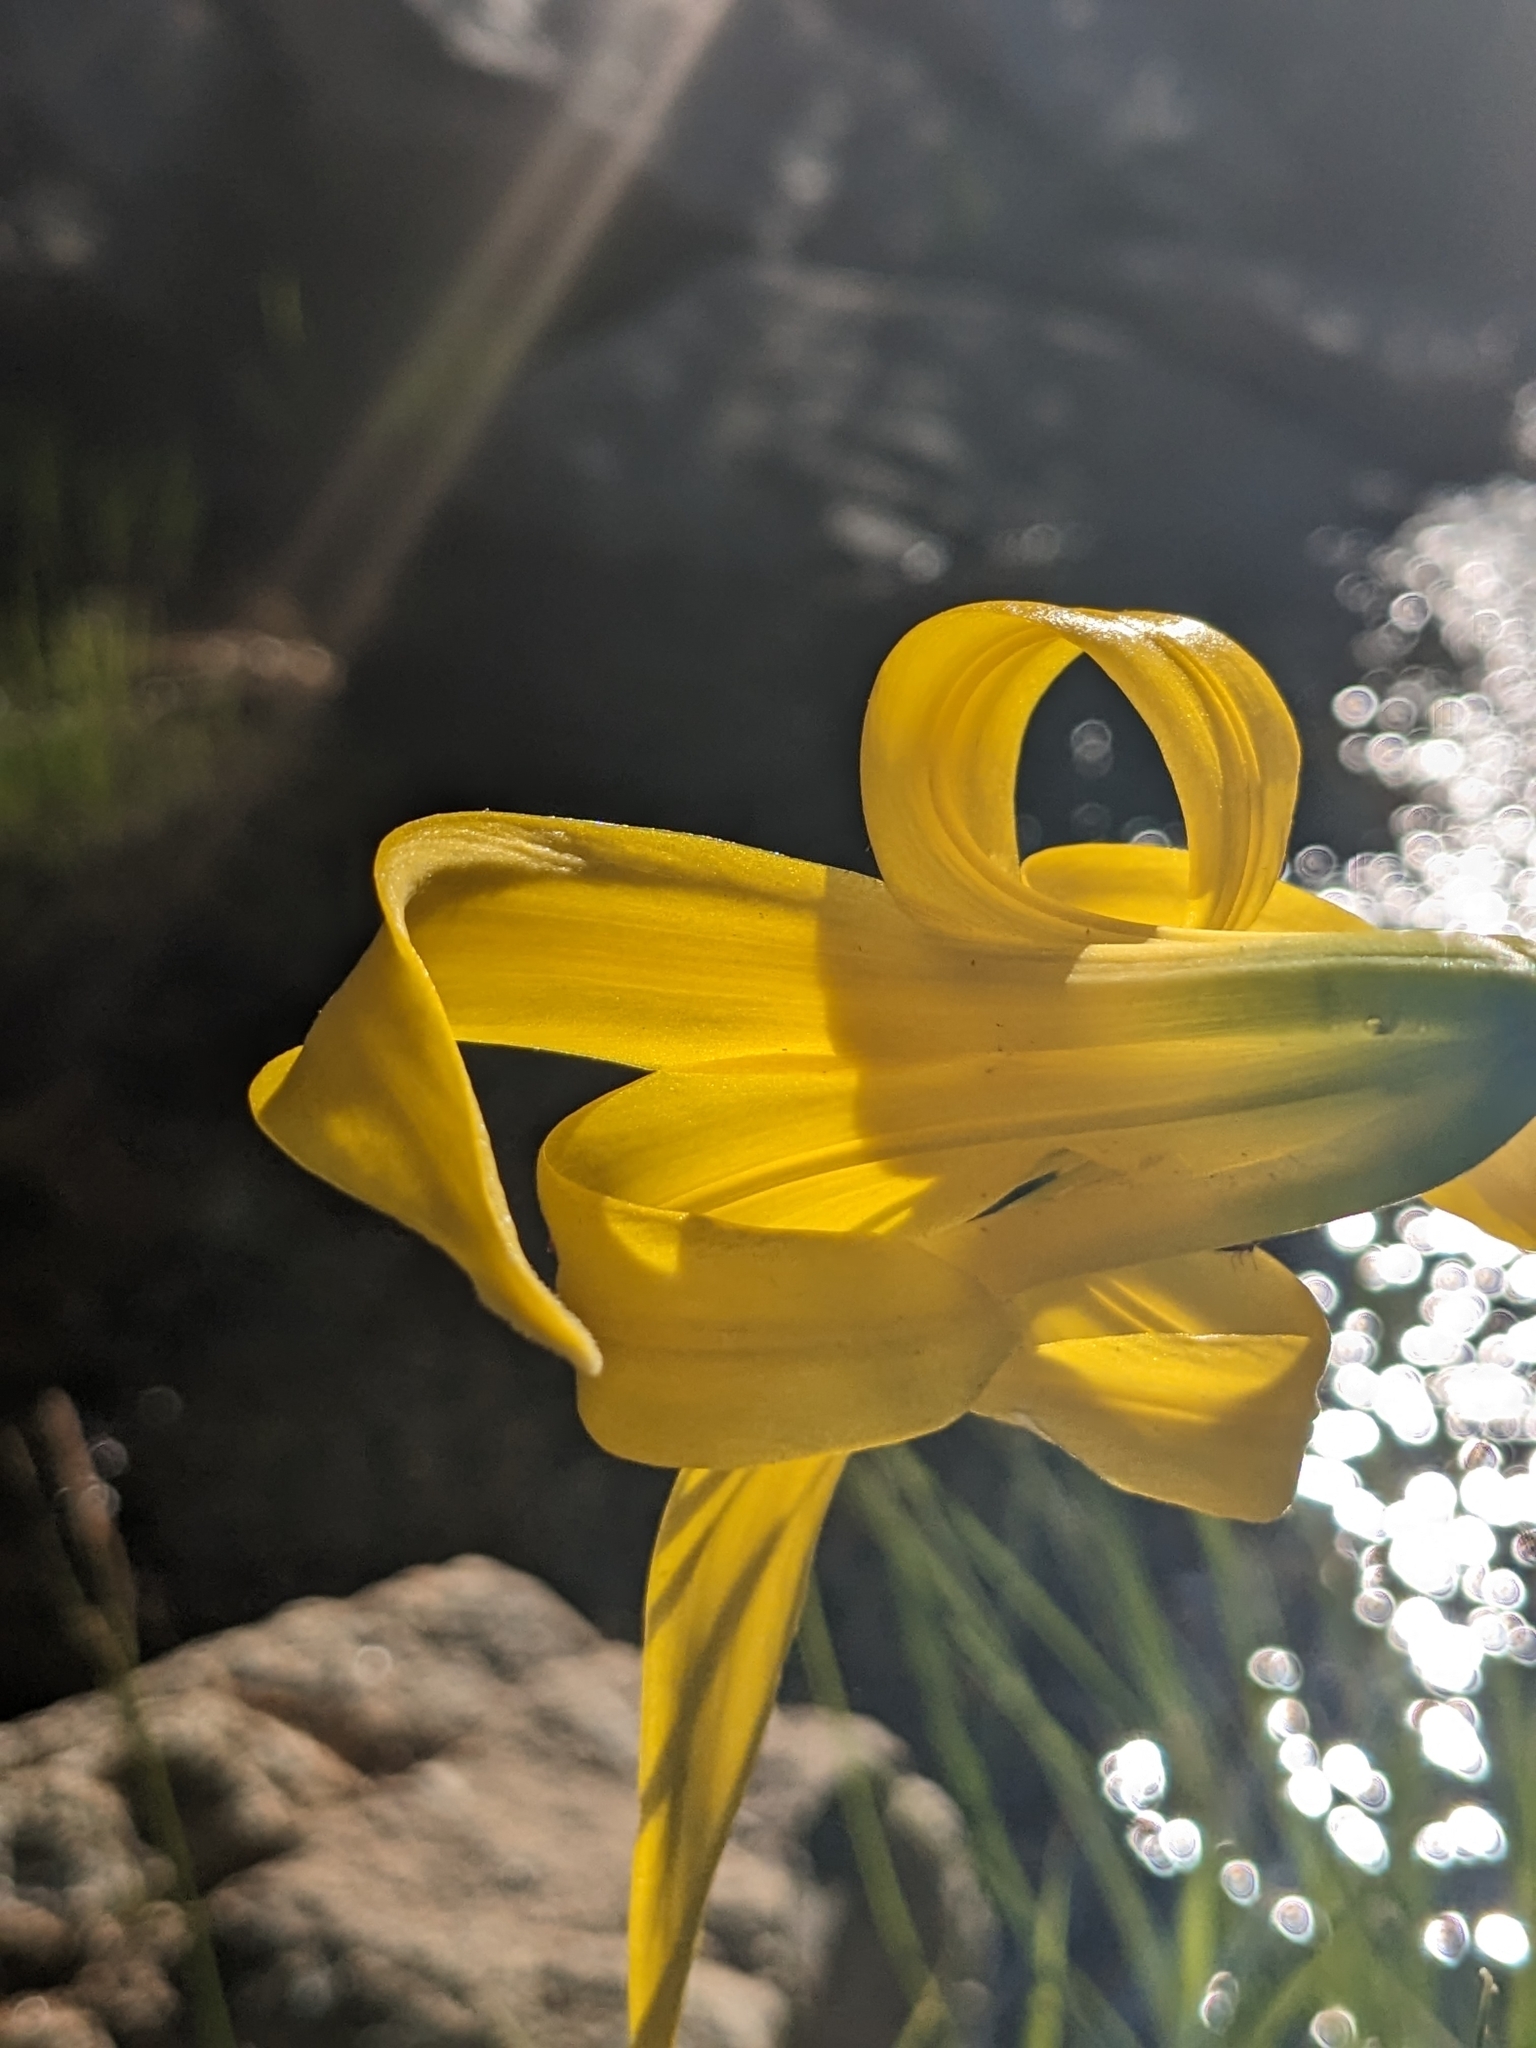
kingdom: Plantae
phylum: Tracheophyta
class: Liliopsida
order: Liliales
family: Liliaceae
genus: Lilium
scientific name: Lilium parryi
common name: Lemon lily
